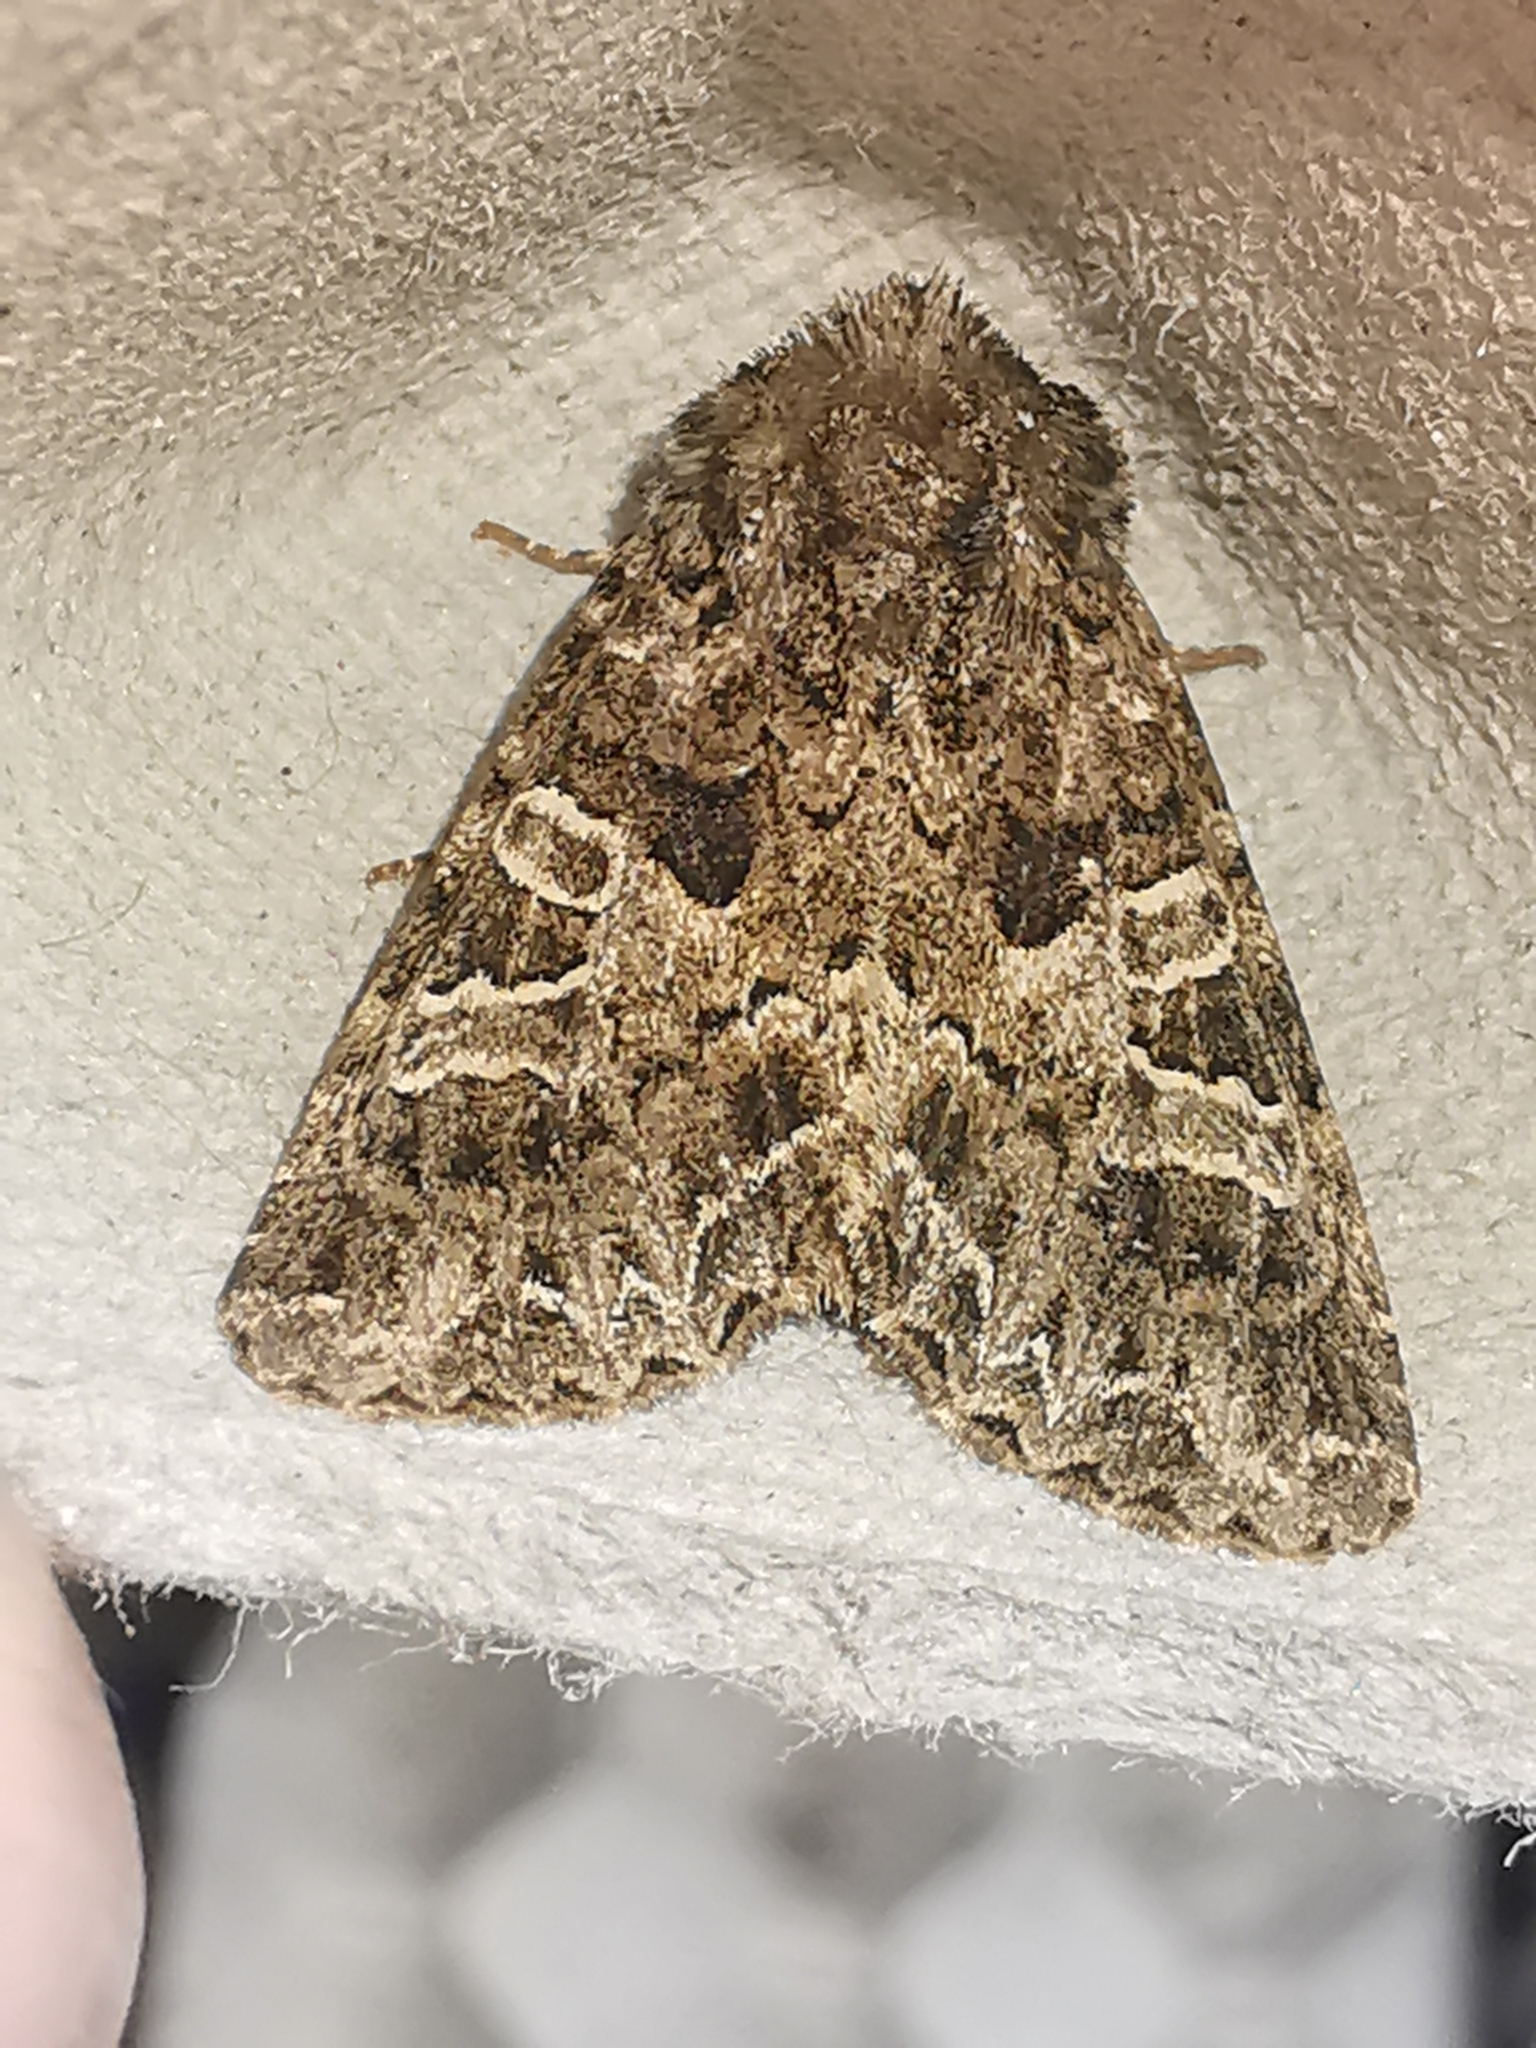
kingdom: Animalia
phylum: Arthropoda
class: Insecta
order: Lepidoptera
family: Noctuidae
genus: Hadena
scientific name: Hadena bicruris
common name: Lychnis
